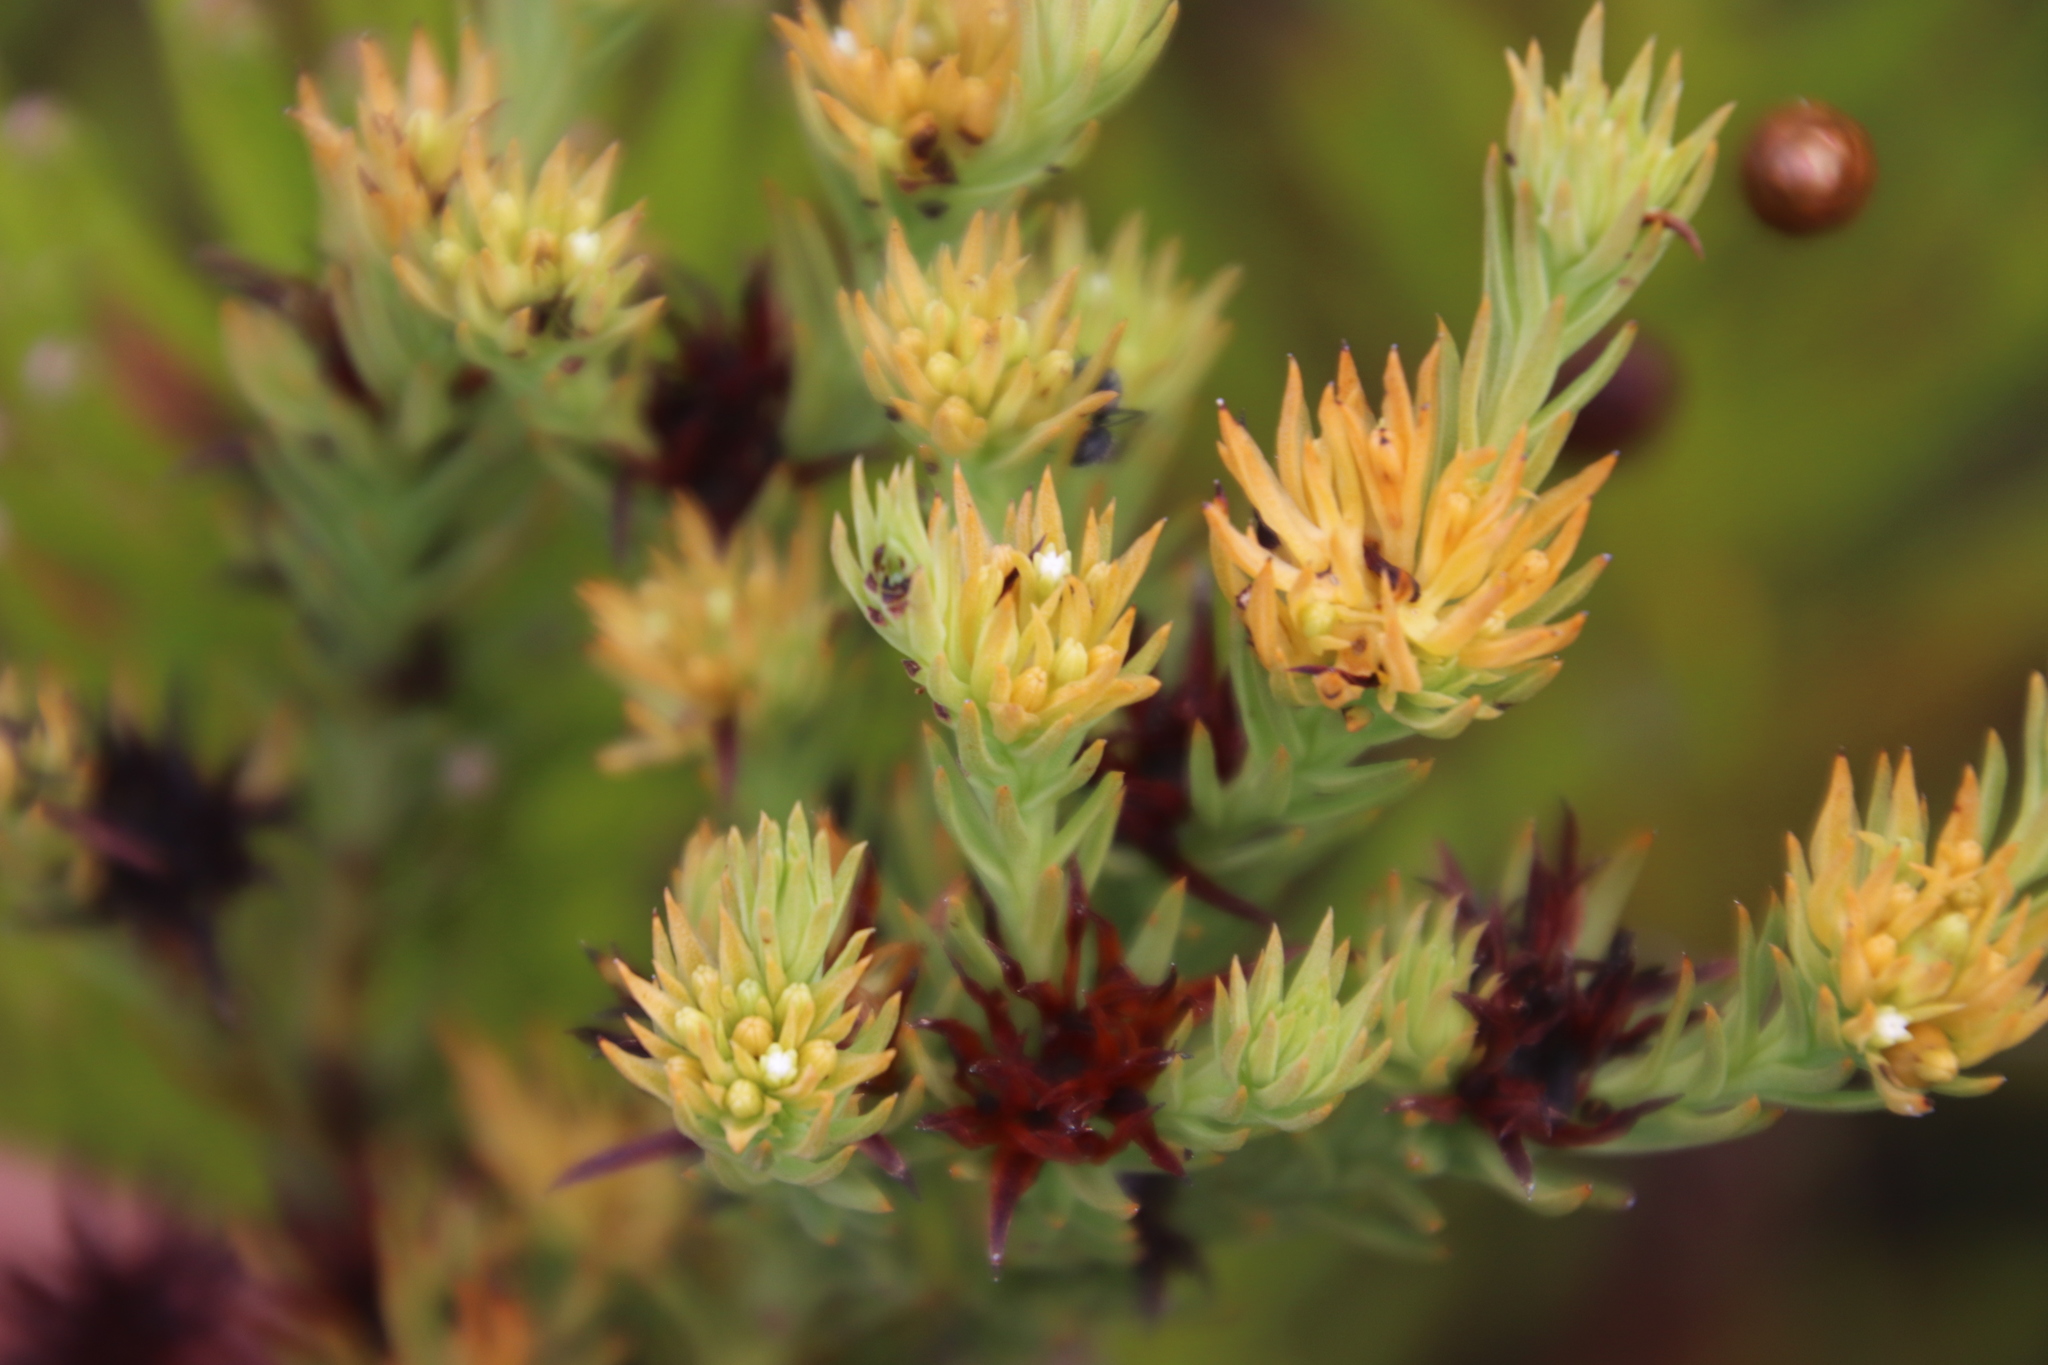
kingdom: Plantae
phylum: Tracheophyta
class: Magnoliopsida
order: Santalales
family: Thesiaceae
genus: Thesium
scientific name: Thesium carinatum
